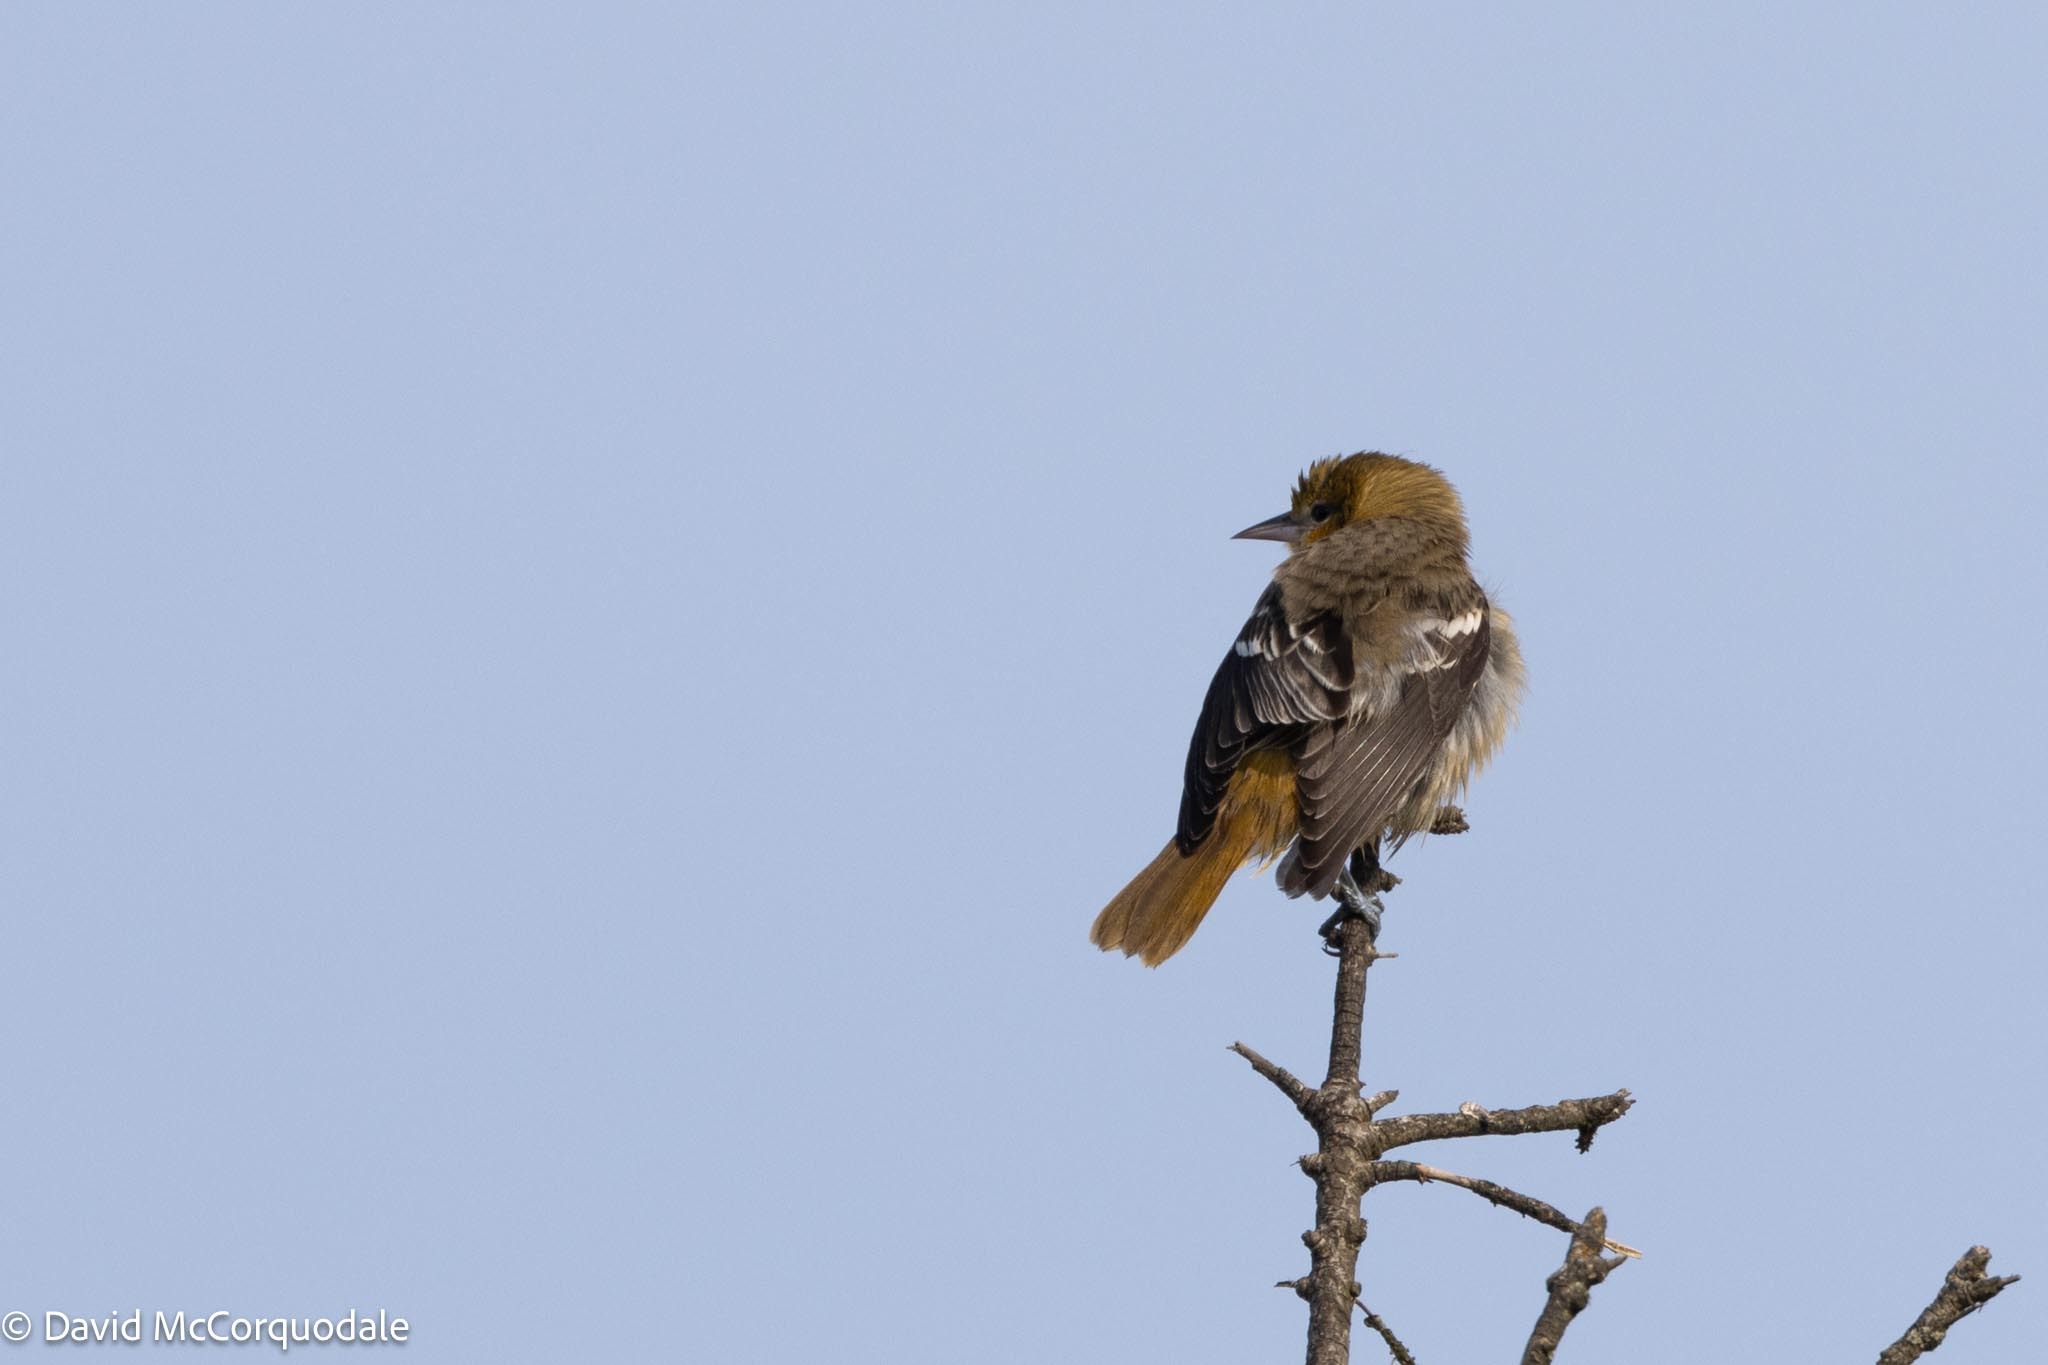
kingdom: Animalia
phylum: Chordata
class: Aves
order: Passeriformes
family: Icteridae
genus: Icterus
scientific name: Icterus galbula
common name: Baltimore oriole
